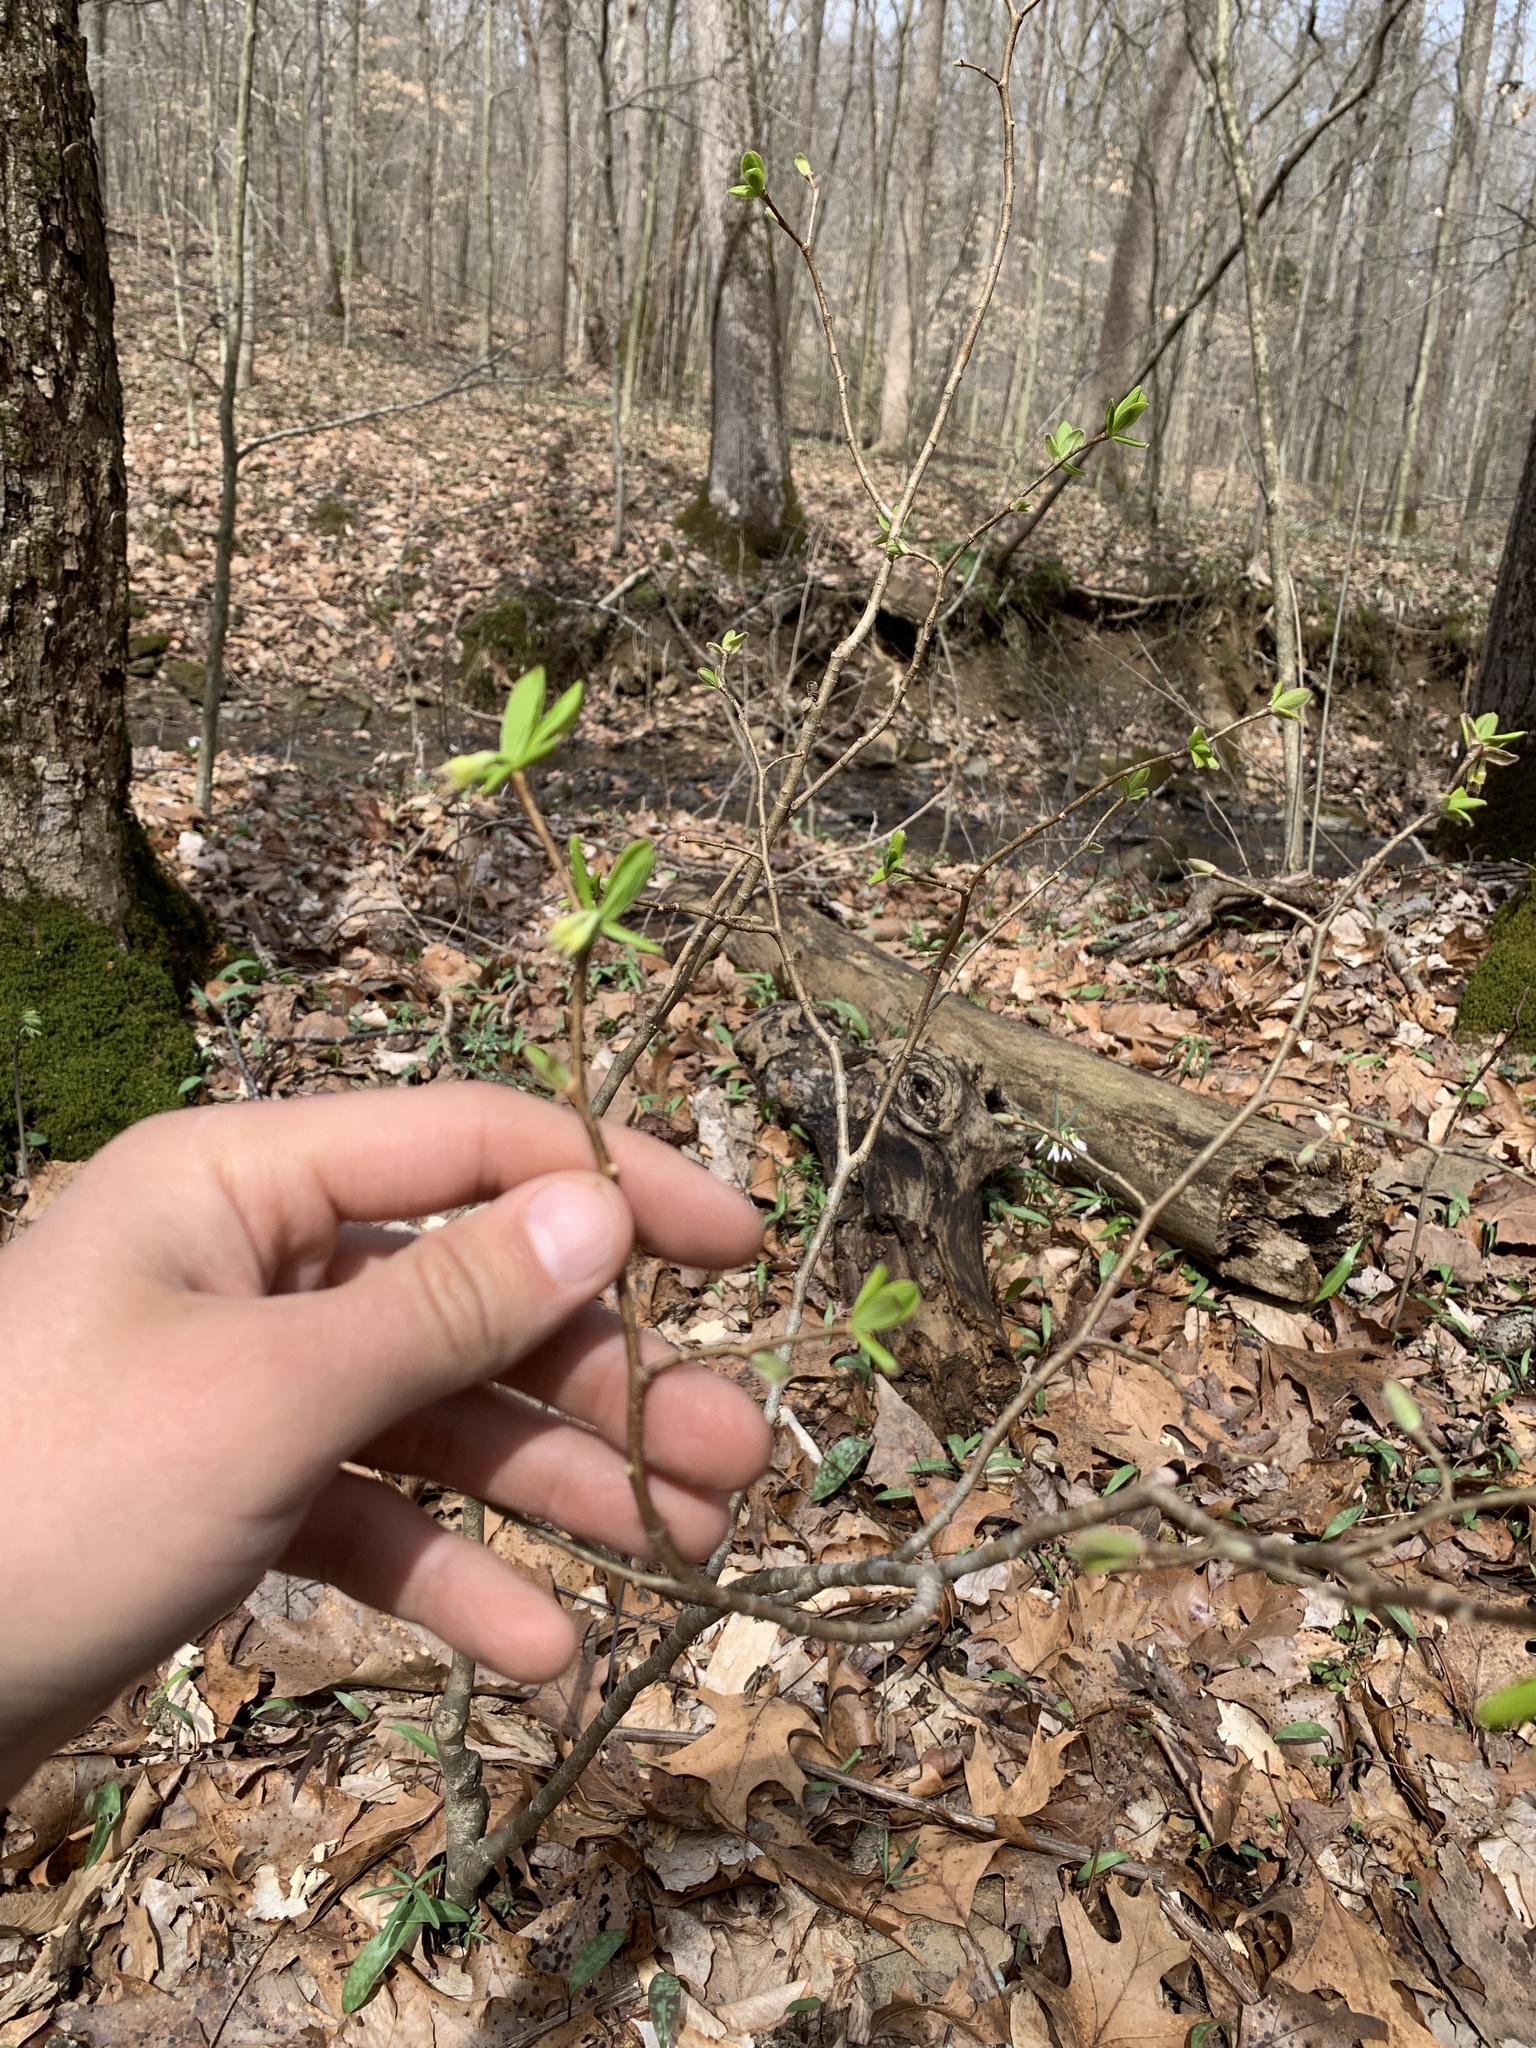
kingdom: Plantae
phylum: Tracheophyta
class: Magnoliopsida
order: Malvales
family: Thymelaeaceae
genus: Dirca
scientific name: Dirca palustris
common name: Leatherwood
